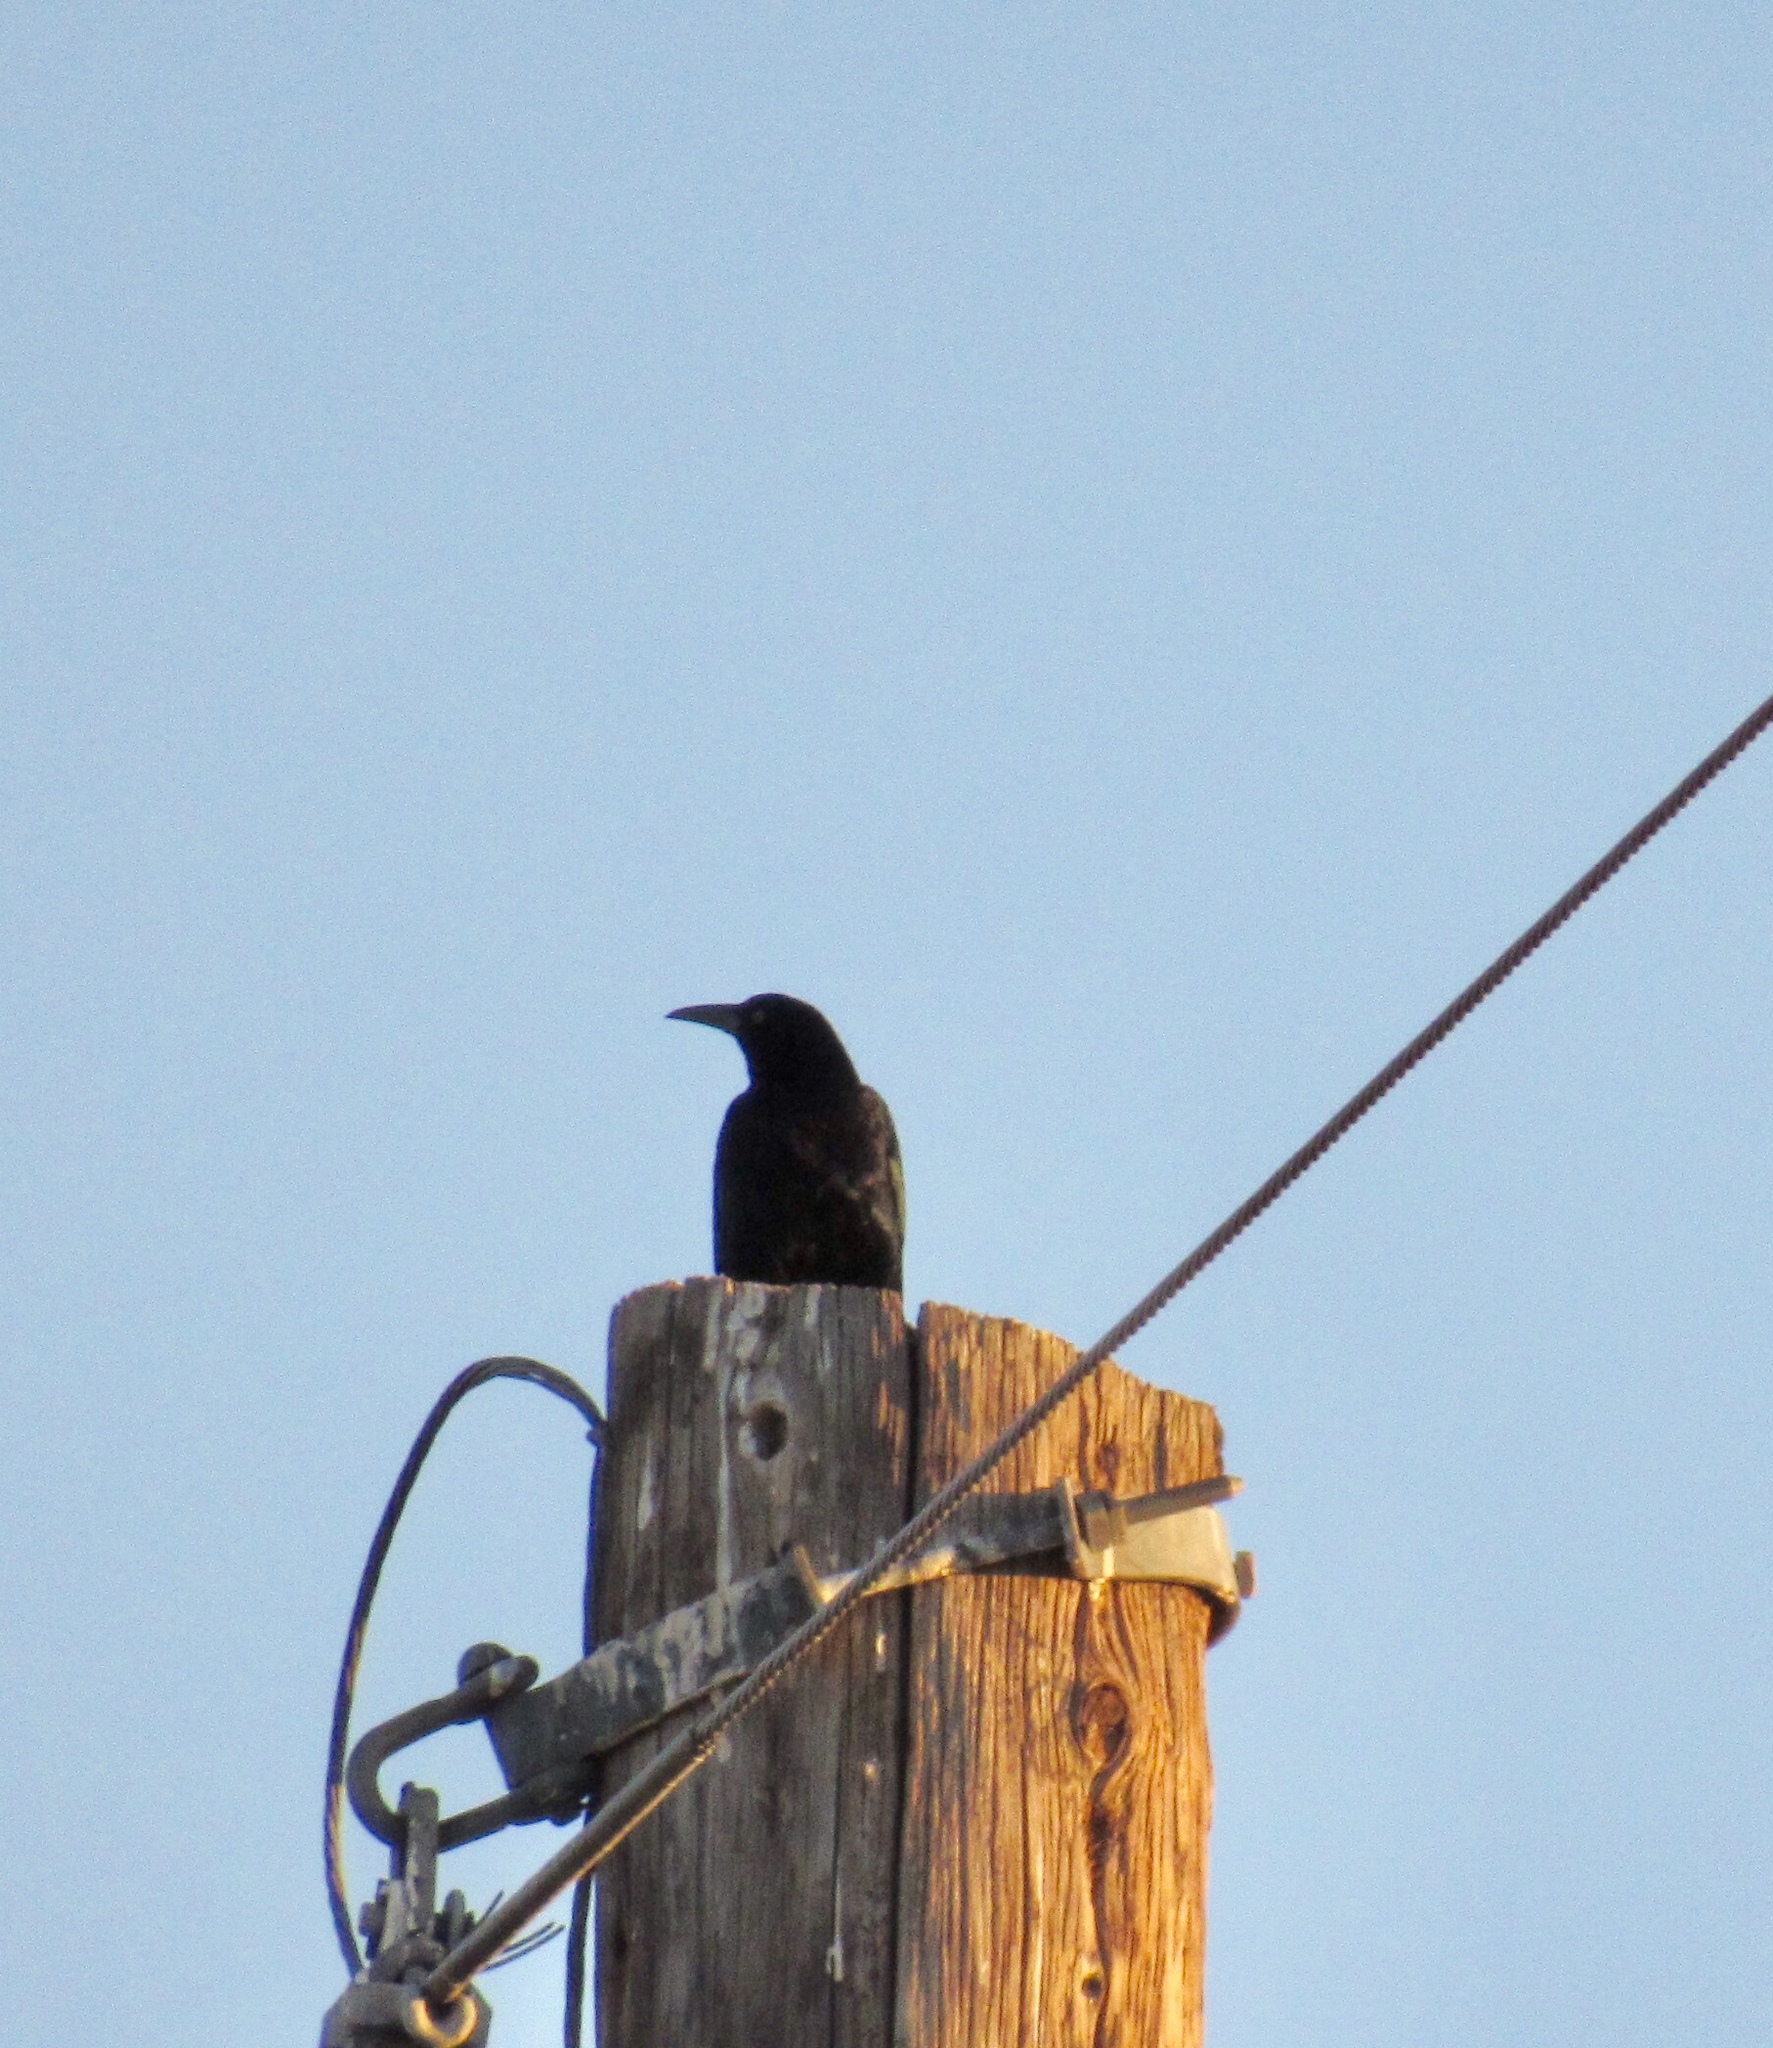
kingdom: Animalia
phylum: Chordata
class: Aves
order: Passeriformes
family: Icteridae
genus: Quiscalus
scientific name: Quiscalus mexicanus
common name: Great-tailed grackle
